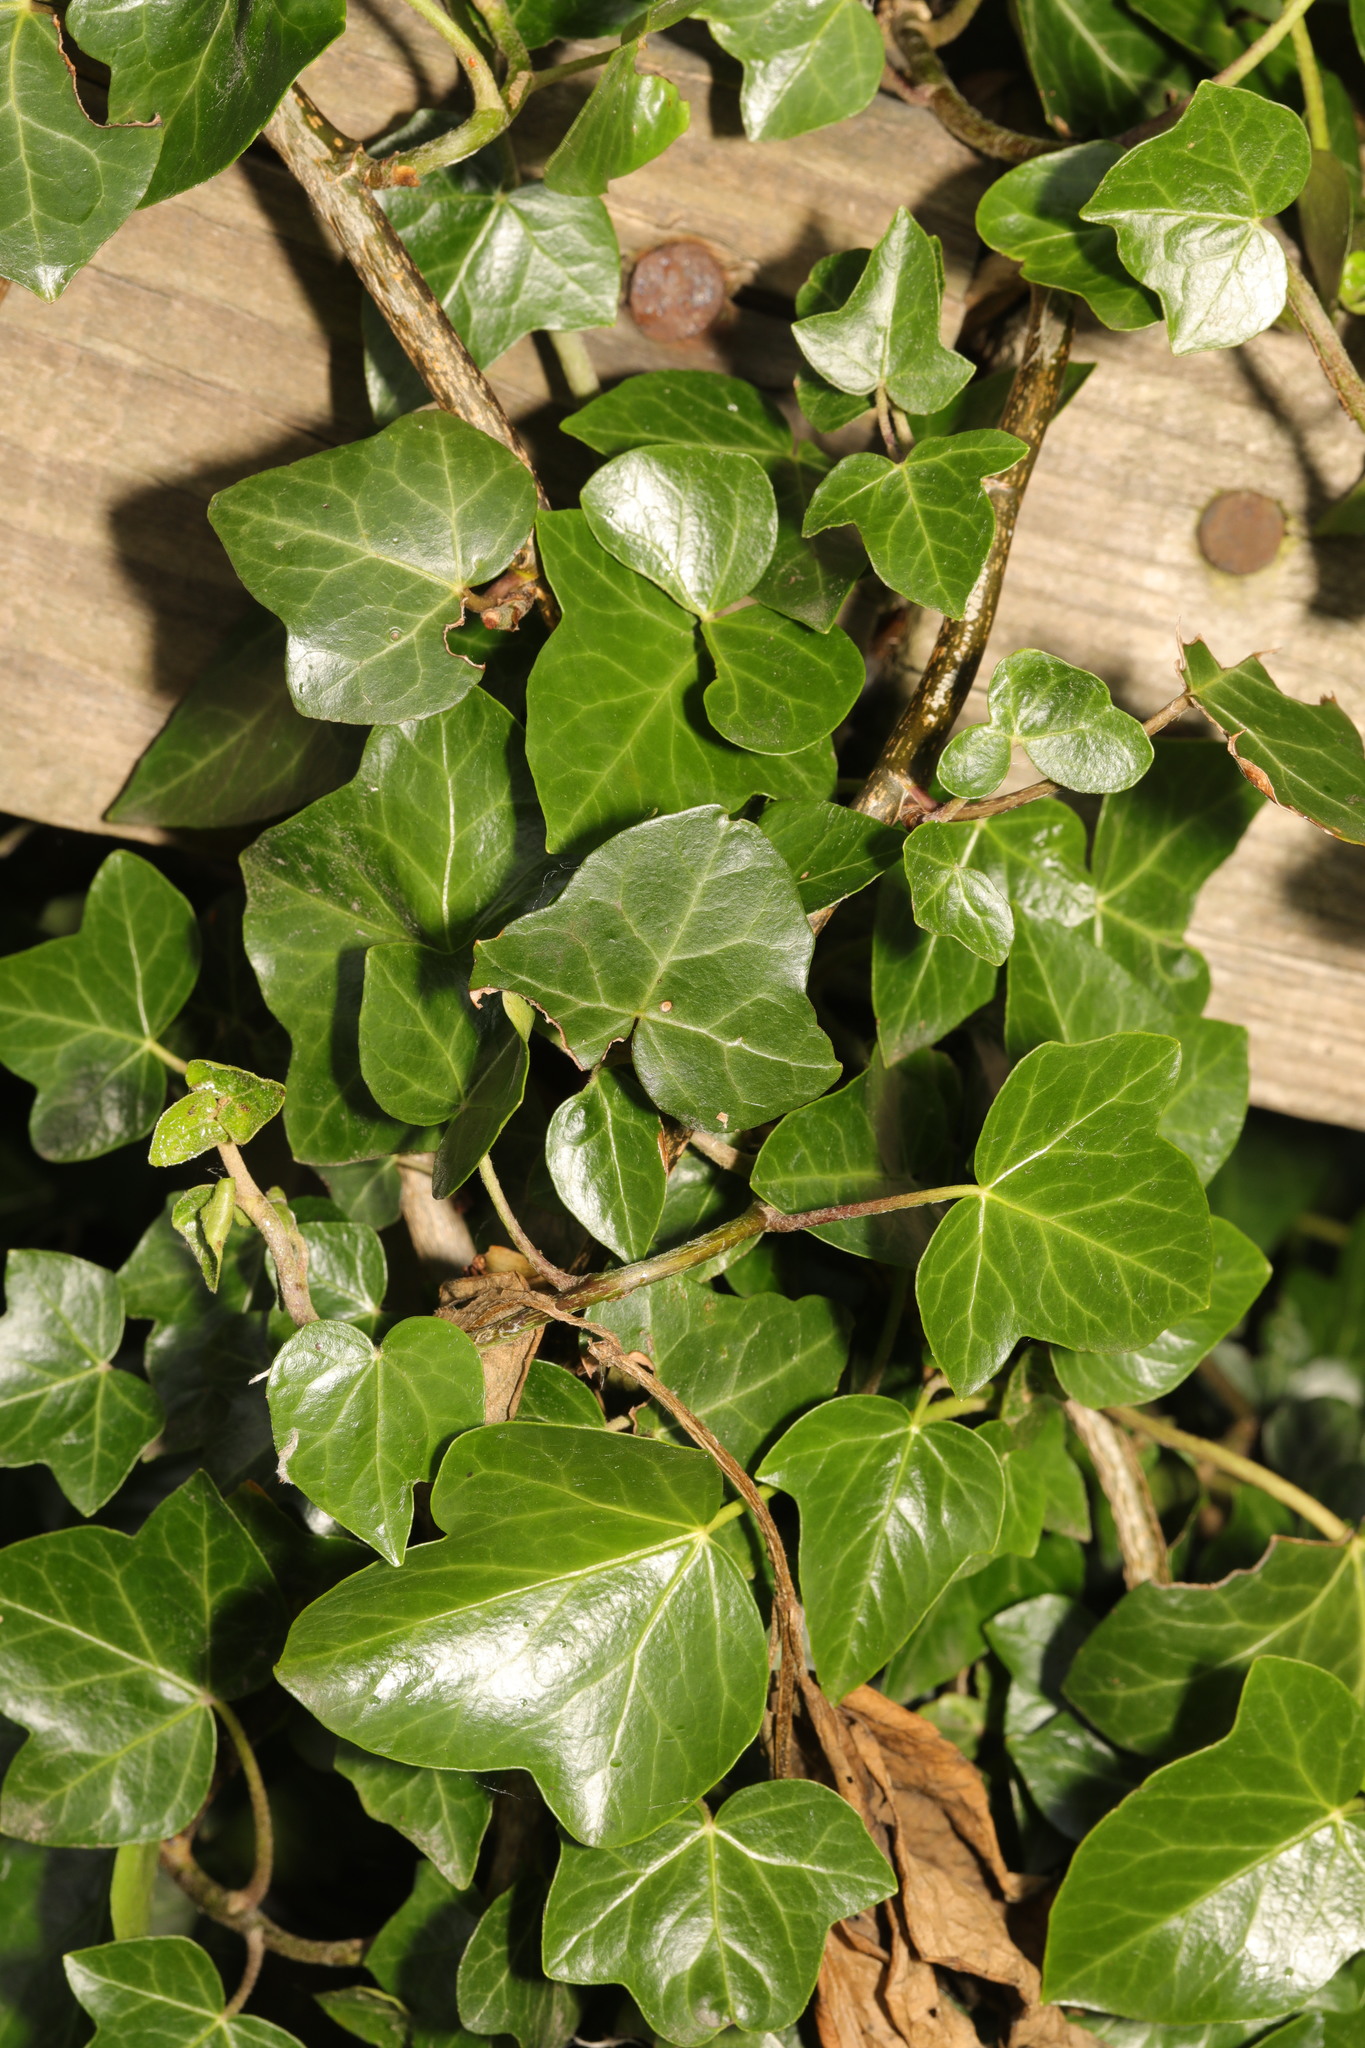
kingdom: Plantae
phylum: Tracheophyta
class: Magnoliopsida
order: Apiales
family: Araliaceae
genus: Hedera
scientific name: Hedera helix
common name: Ivy
